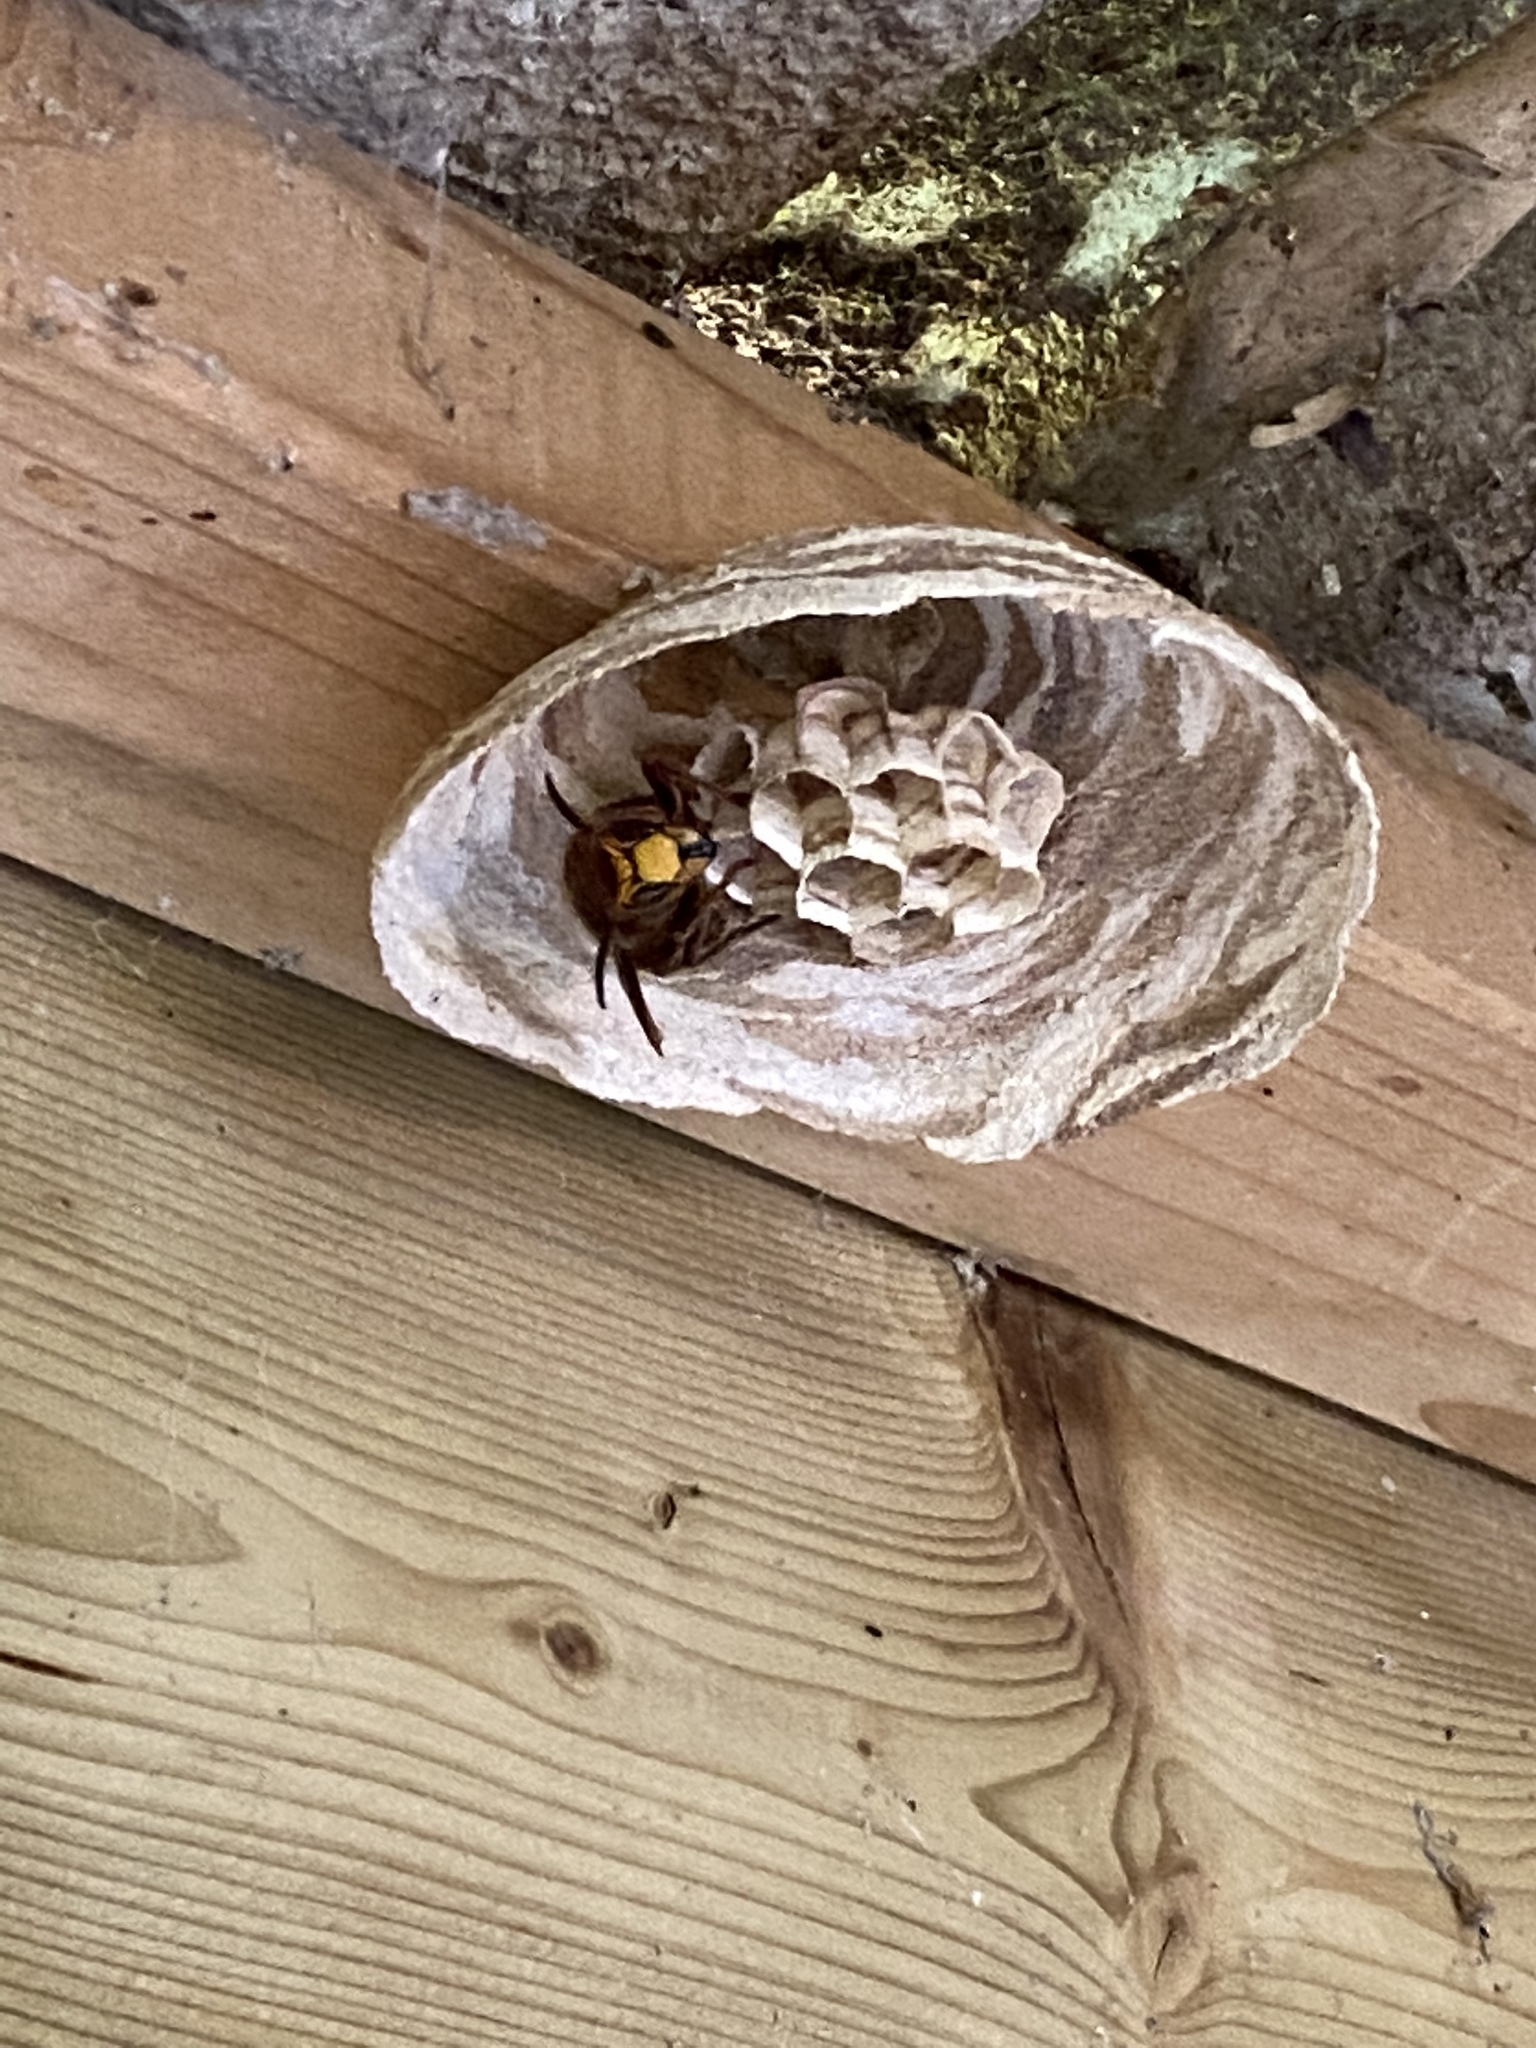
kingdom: Animalia
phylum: Arthropoda
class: Insecta
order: Hymenoptera
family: Vespidae
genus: Vespa
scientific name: Vespa crabro
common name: Hornet
